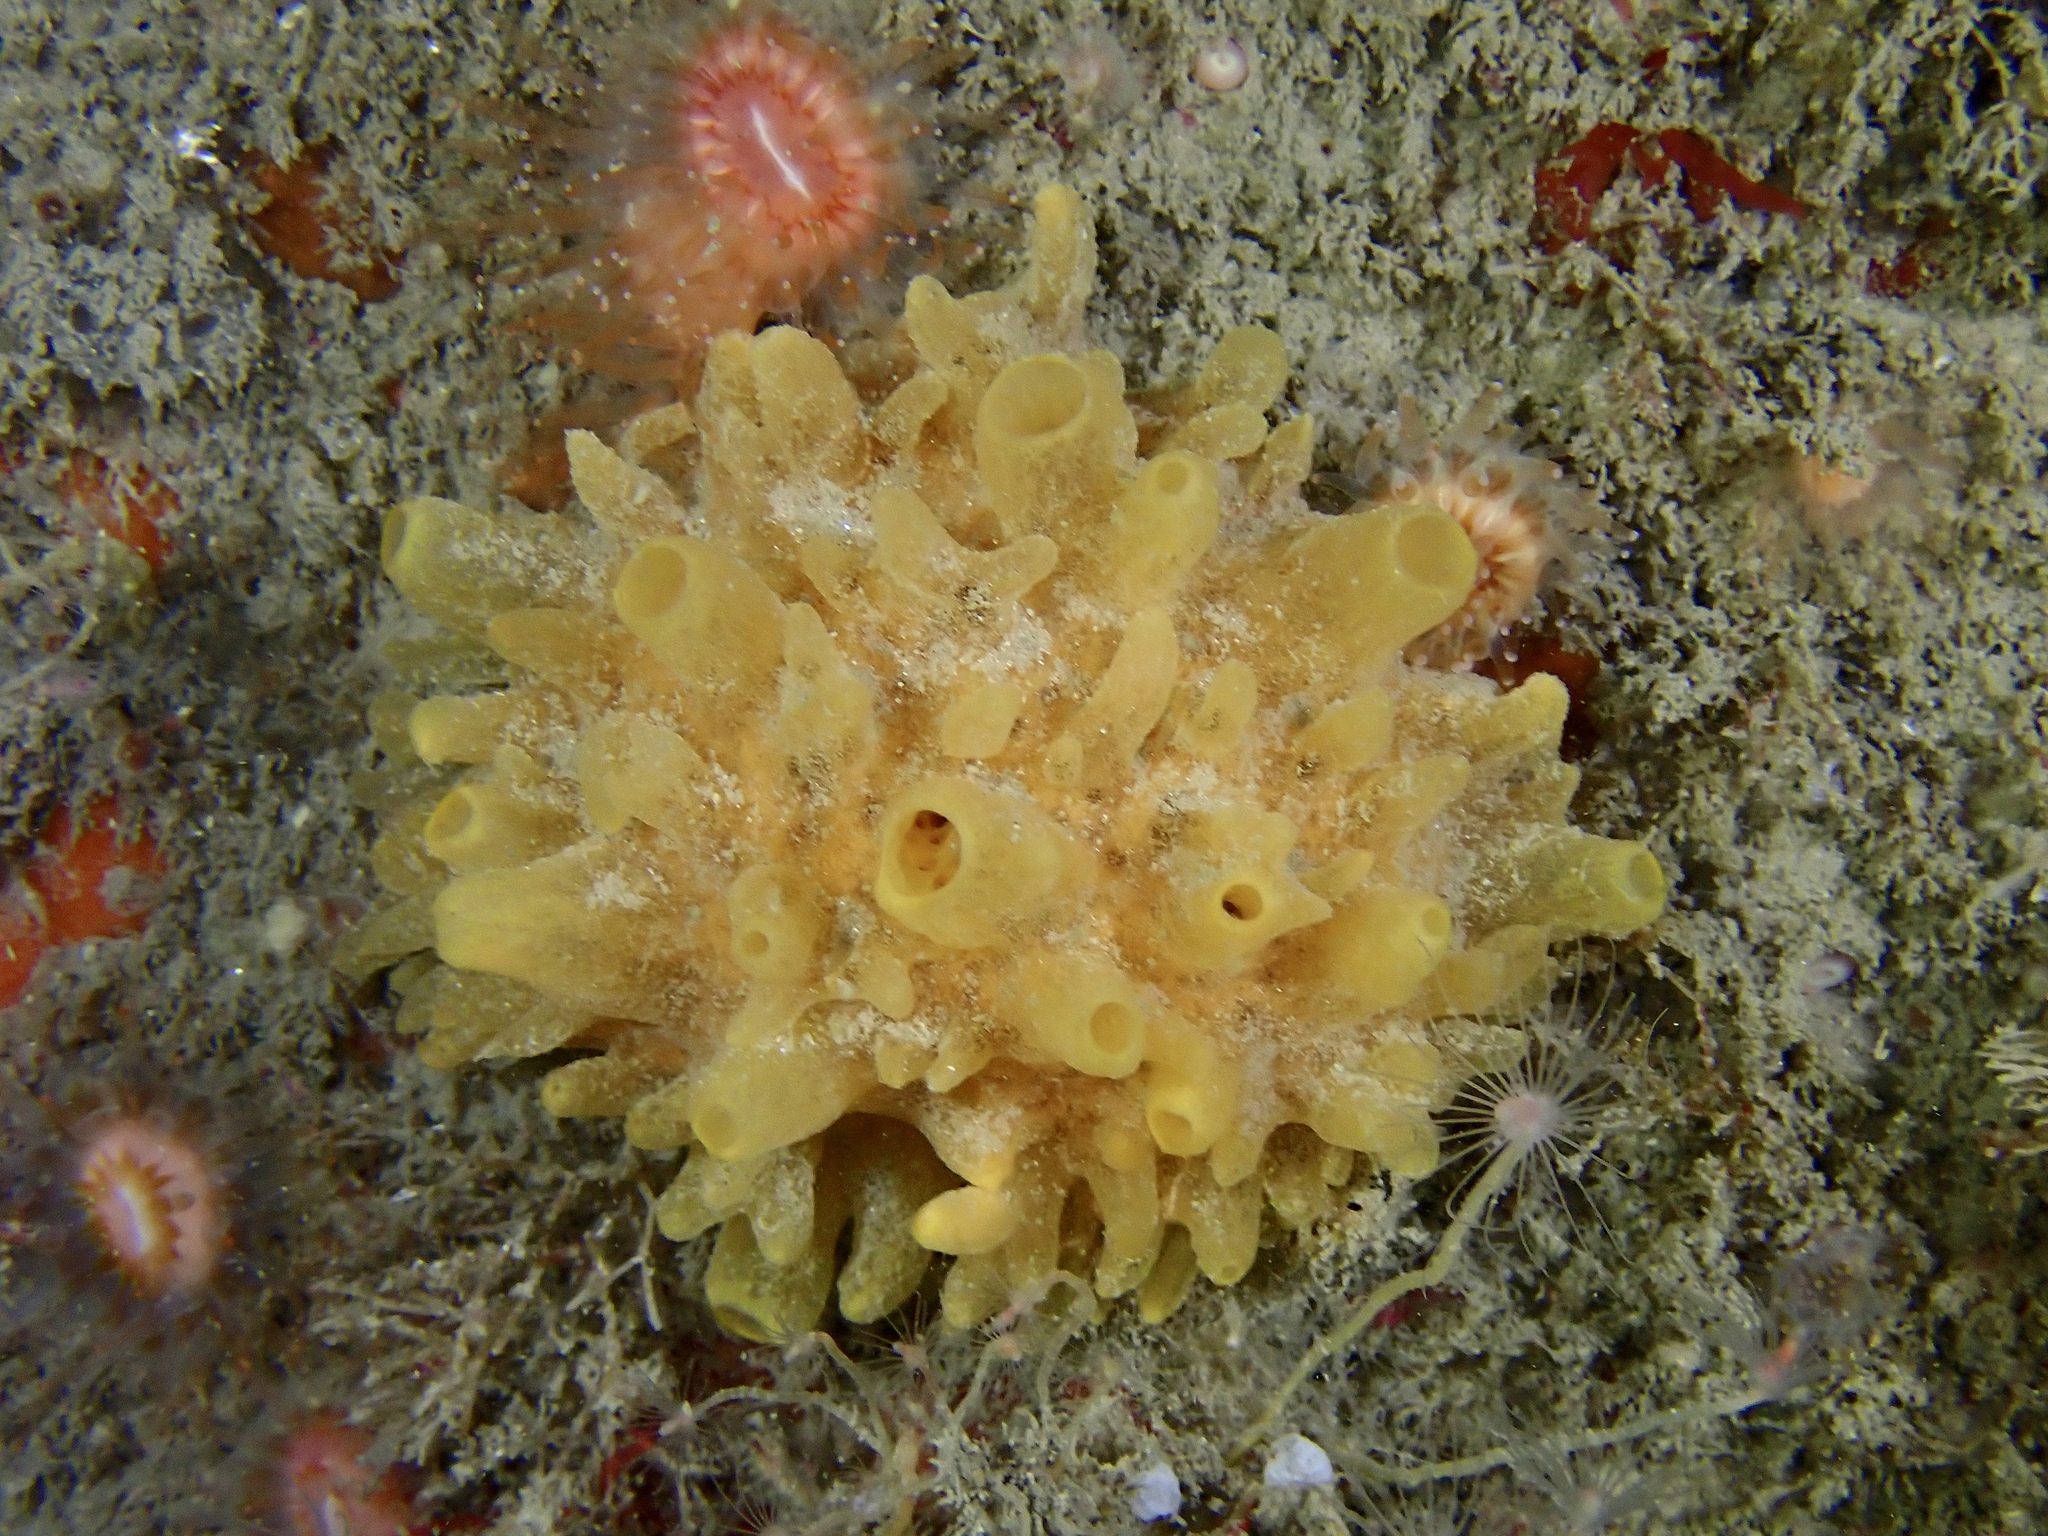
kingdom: Animalia
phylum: Porifera
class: Demospongiae
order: Polymastiida
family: Polymastiidae
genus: Polymastia
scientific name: Polymastia boletiformis
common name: Massive horny sponge
